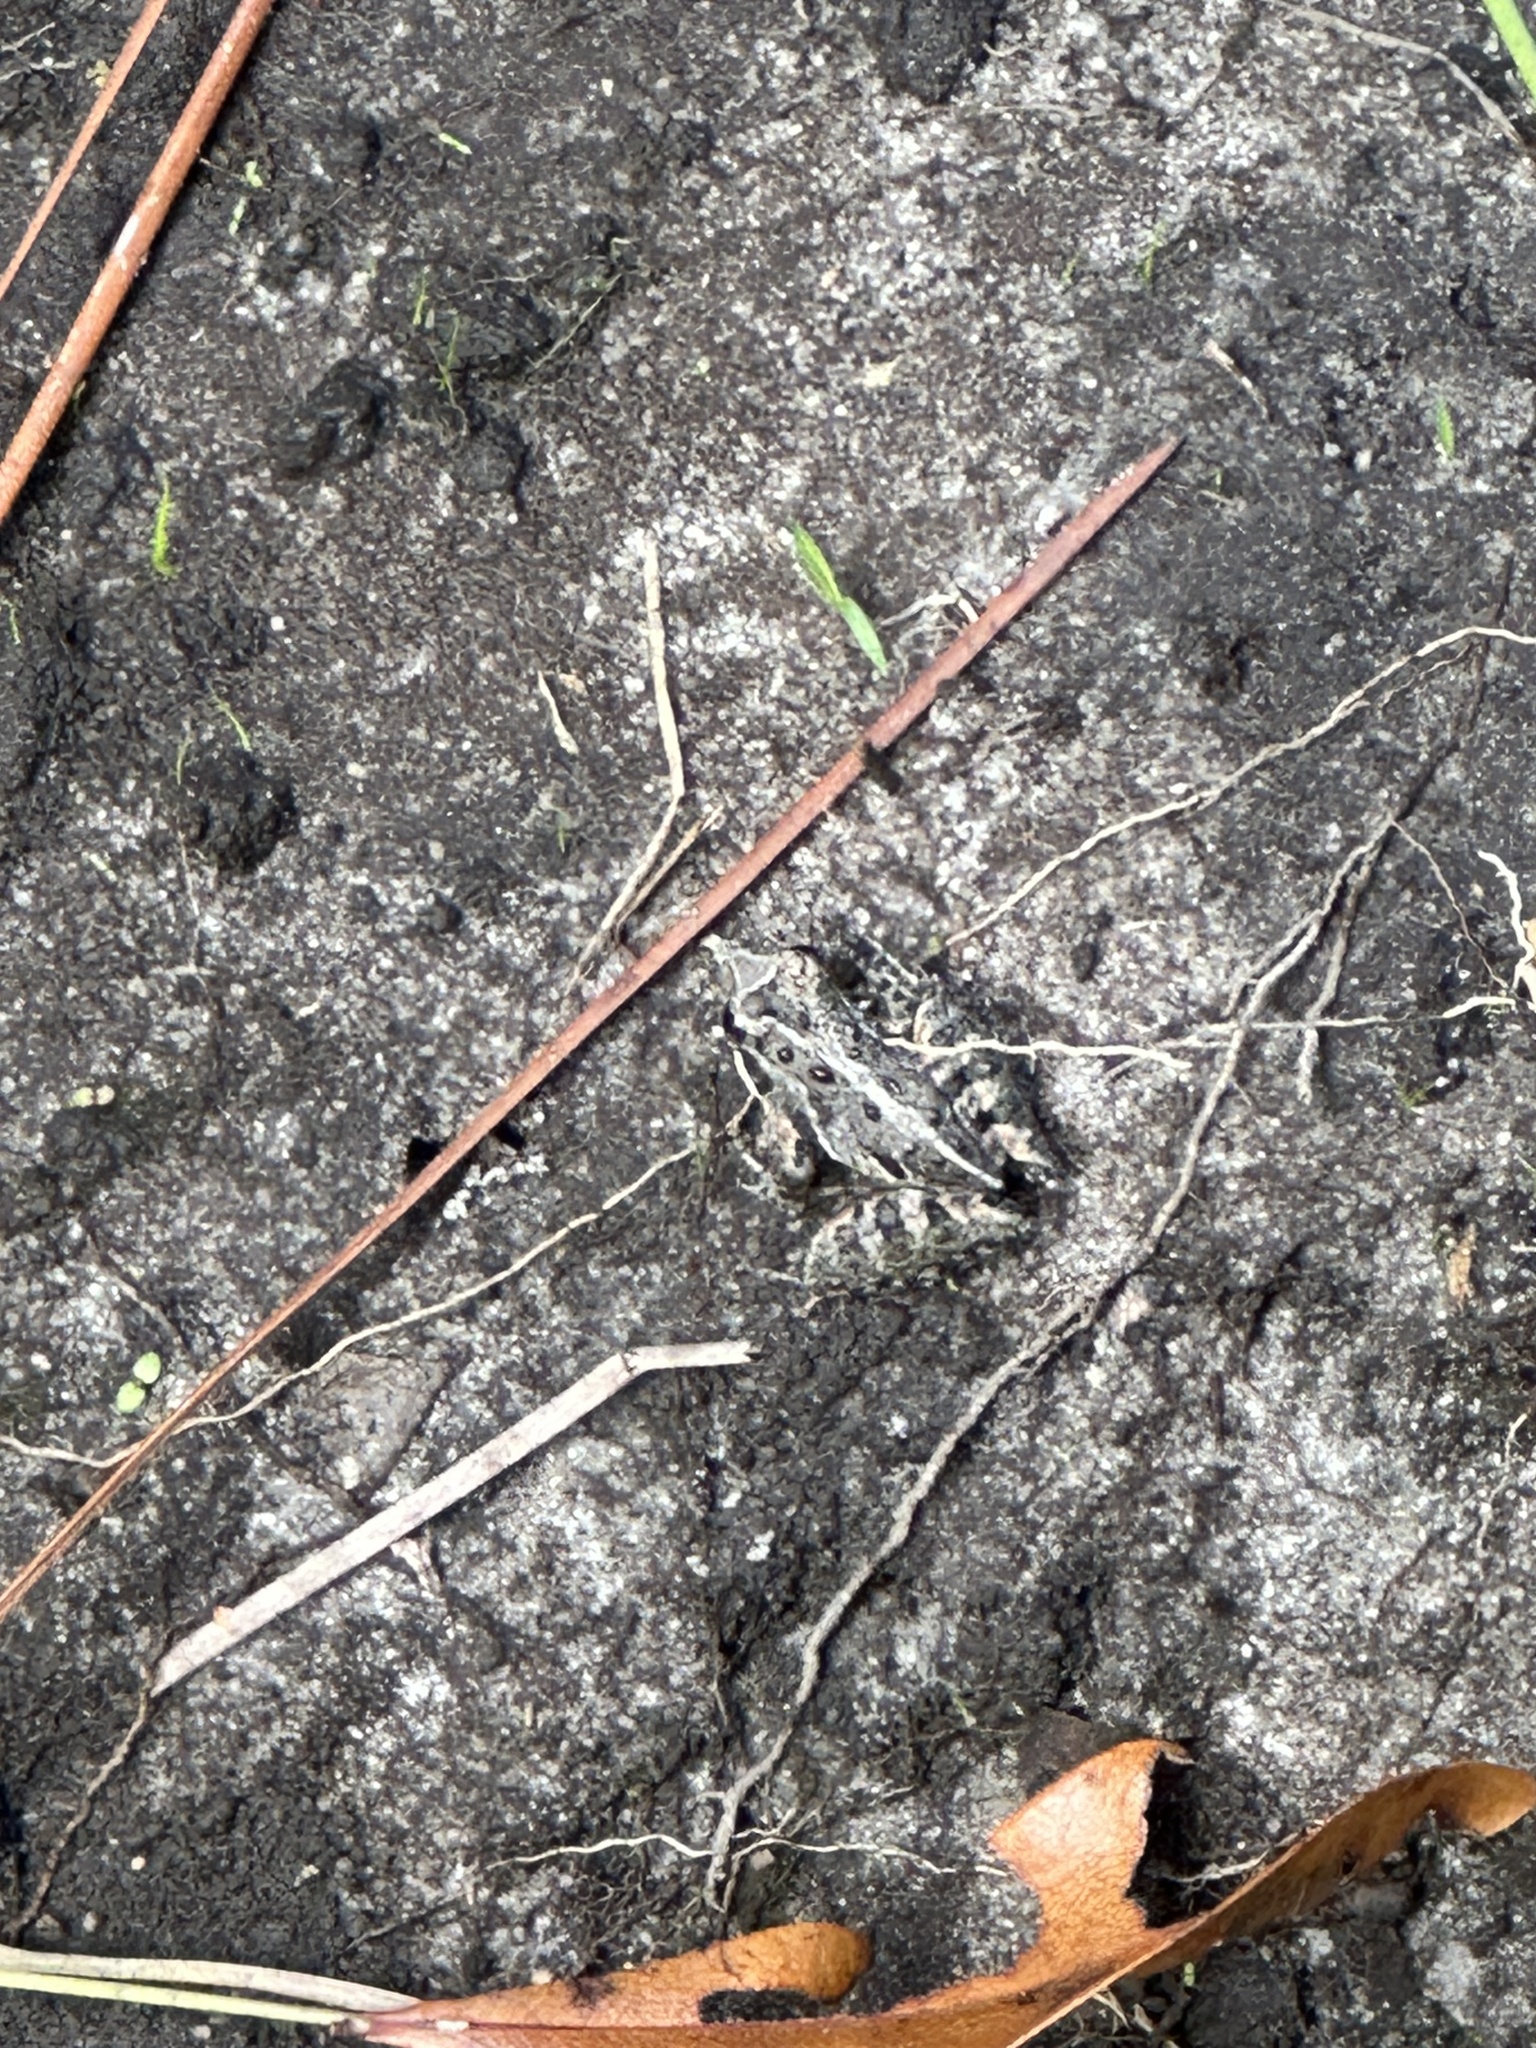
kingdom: Animalia
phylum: Chordata
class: Amphibia
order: Anura
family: Hylidae
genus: Acris
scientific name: Acris gryllus
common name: Southern cricket frog
